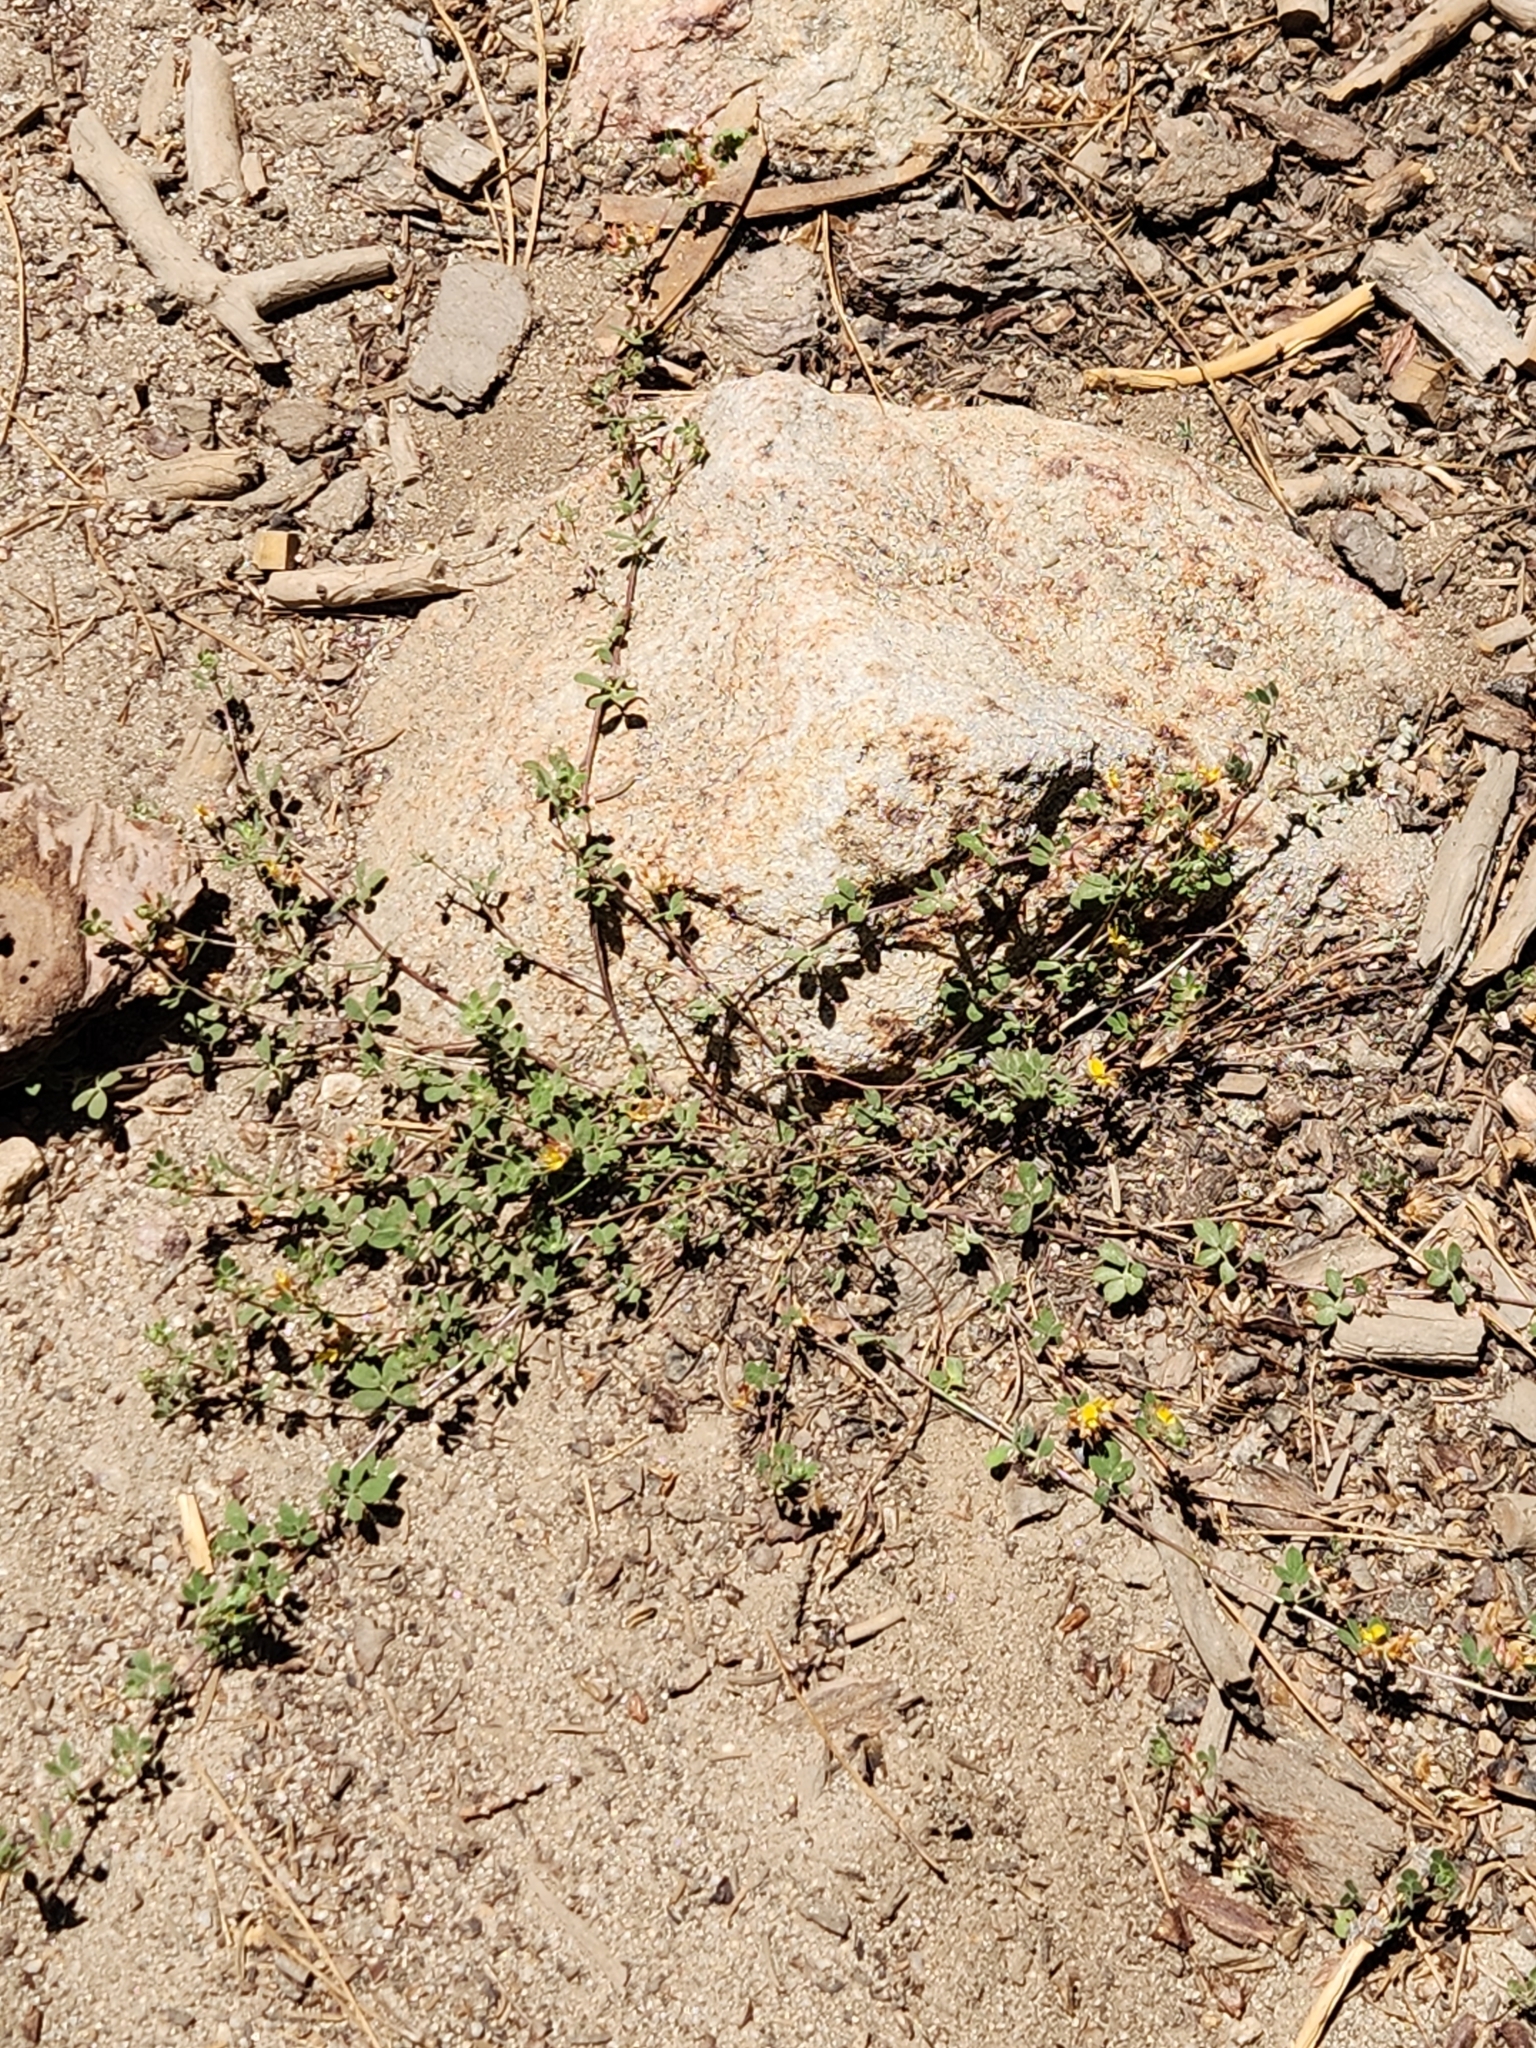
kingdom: Plantae
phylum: Tracheophyta
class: Magnoliopsida
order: Fabales
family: Fabaceae
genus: Acmispon
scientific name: Acmispon decumbens
